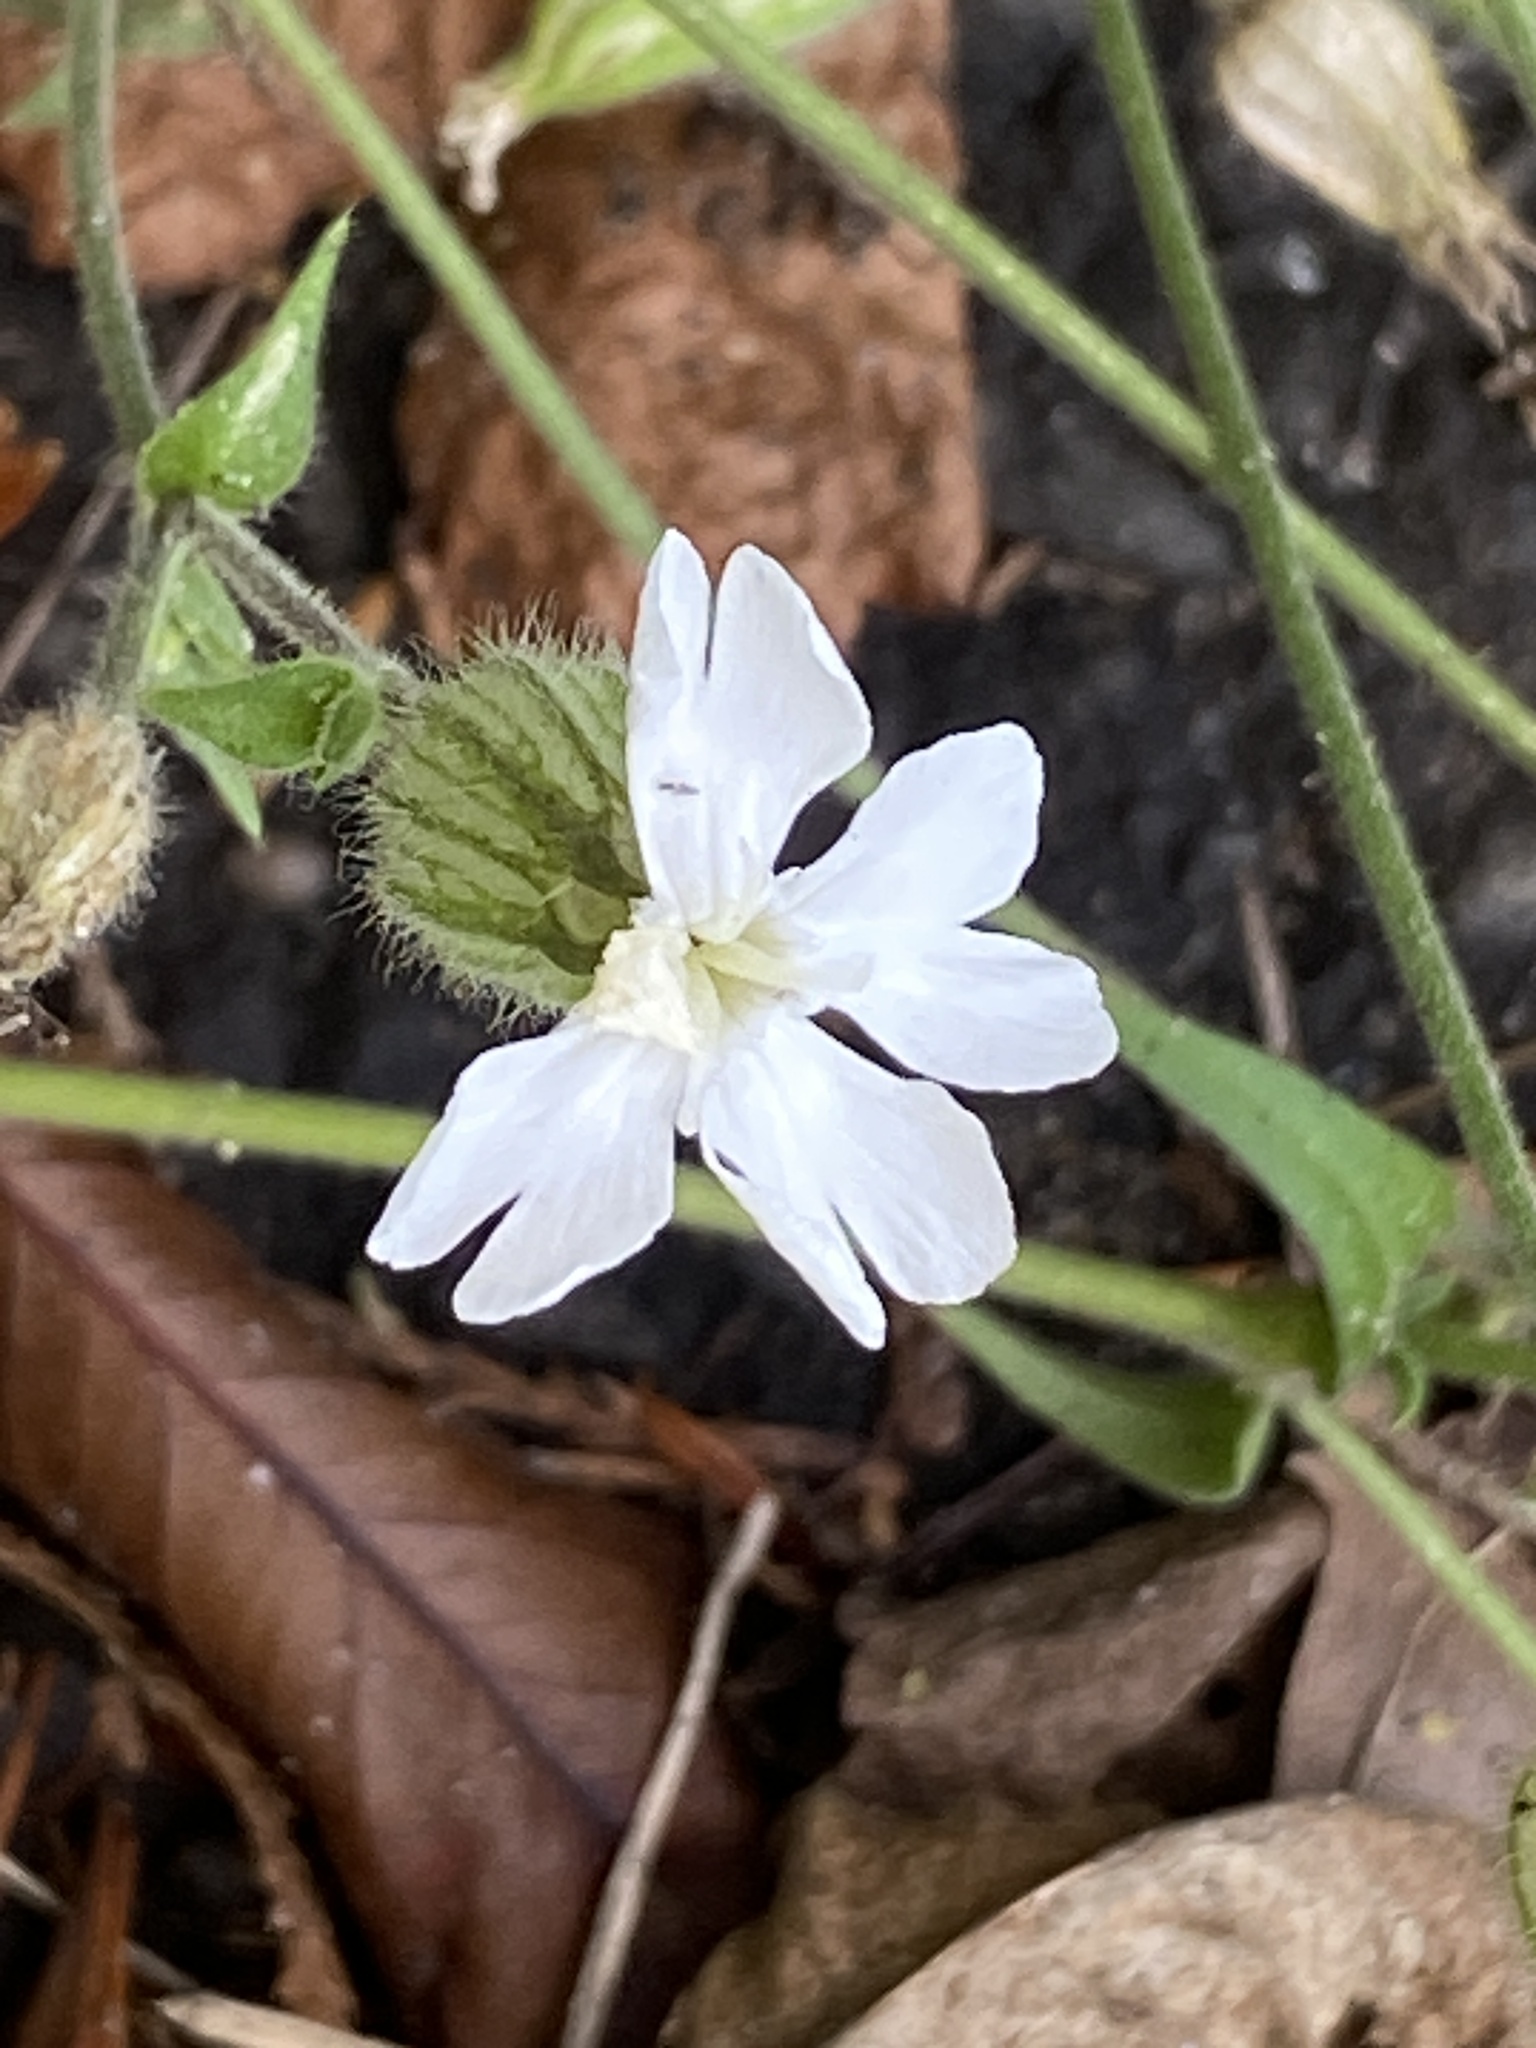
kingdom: Plantae
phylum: Tracheophyta
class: Magnoliopsida
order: Caryophyllales
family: Caryophyllaceae
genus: Silene
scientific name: Silene latifolia
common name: White campion
